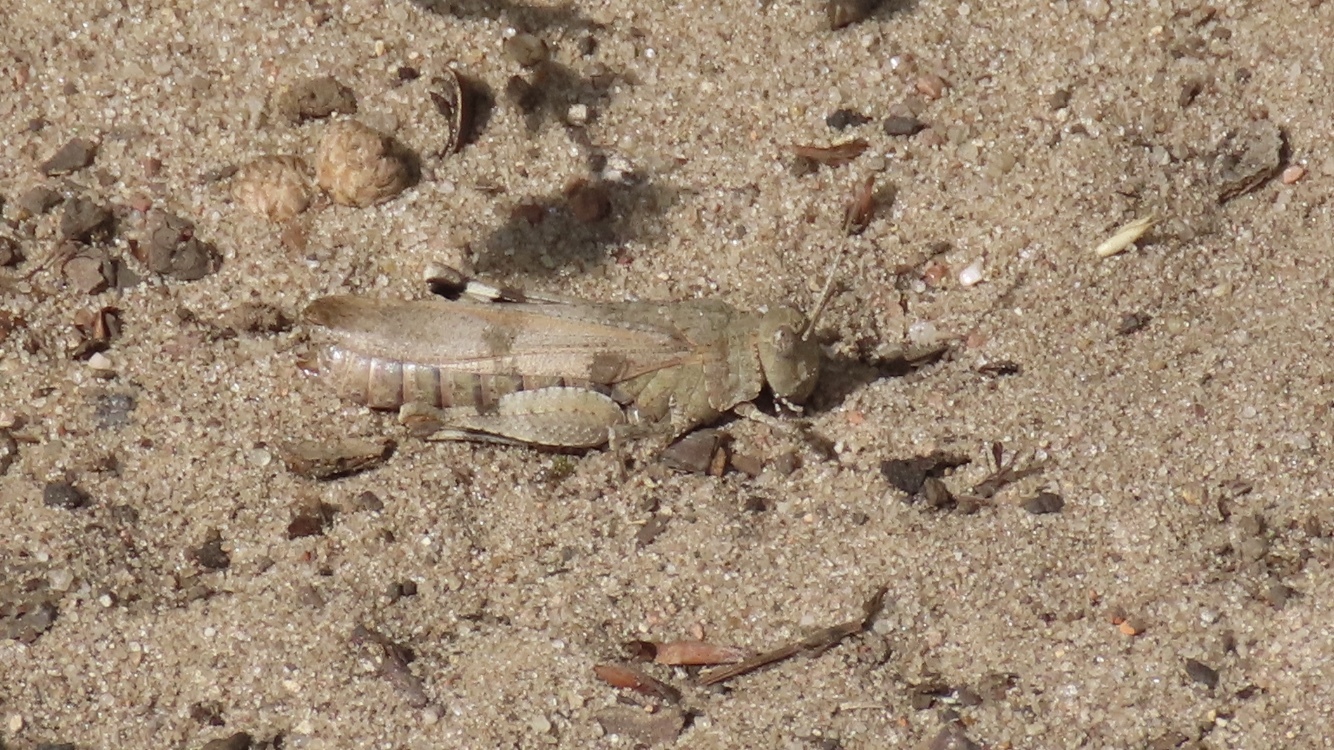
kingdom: Animalia
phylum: Arthropoda
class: Insecta
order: Orthoptera
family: Acrididae
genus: Oedipoda
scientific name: Oedipoda caerulescens
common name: Blue-winged grasshopper
